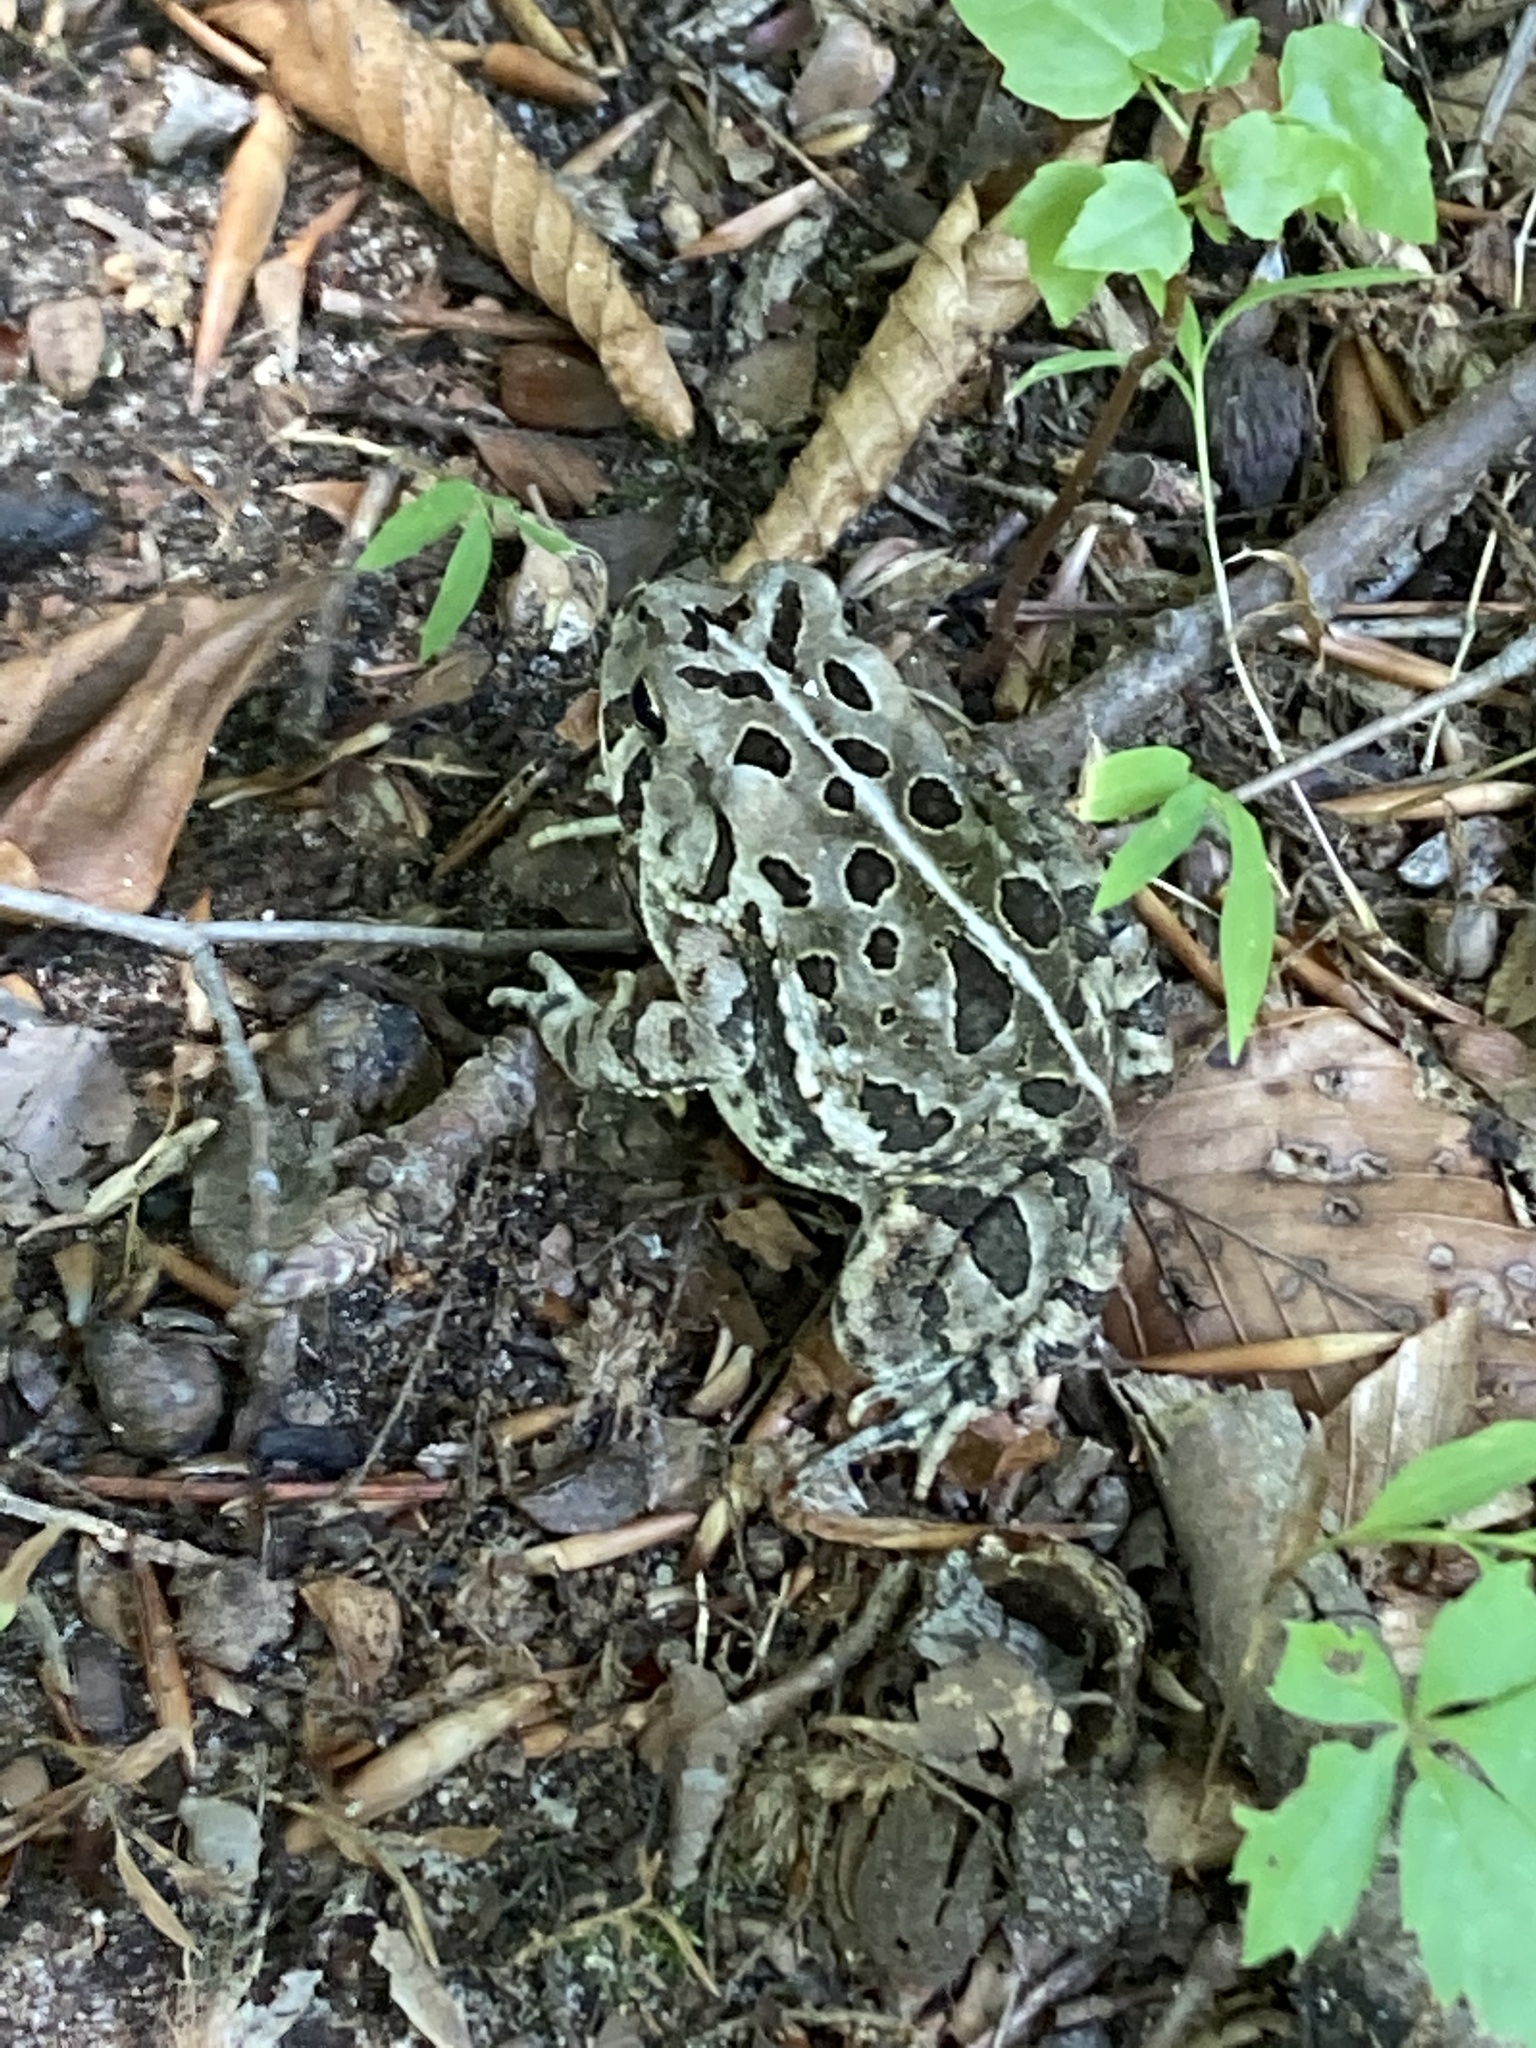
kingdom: Animalia
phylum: Chordata
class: Amphibia
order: Anura
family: Bufonidae
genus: Anaxyrus
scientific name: Anaxyrus fowleri
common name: Fowler's toad
